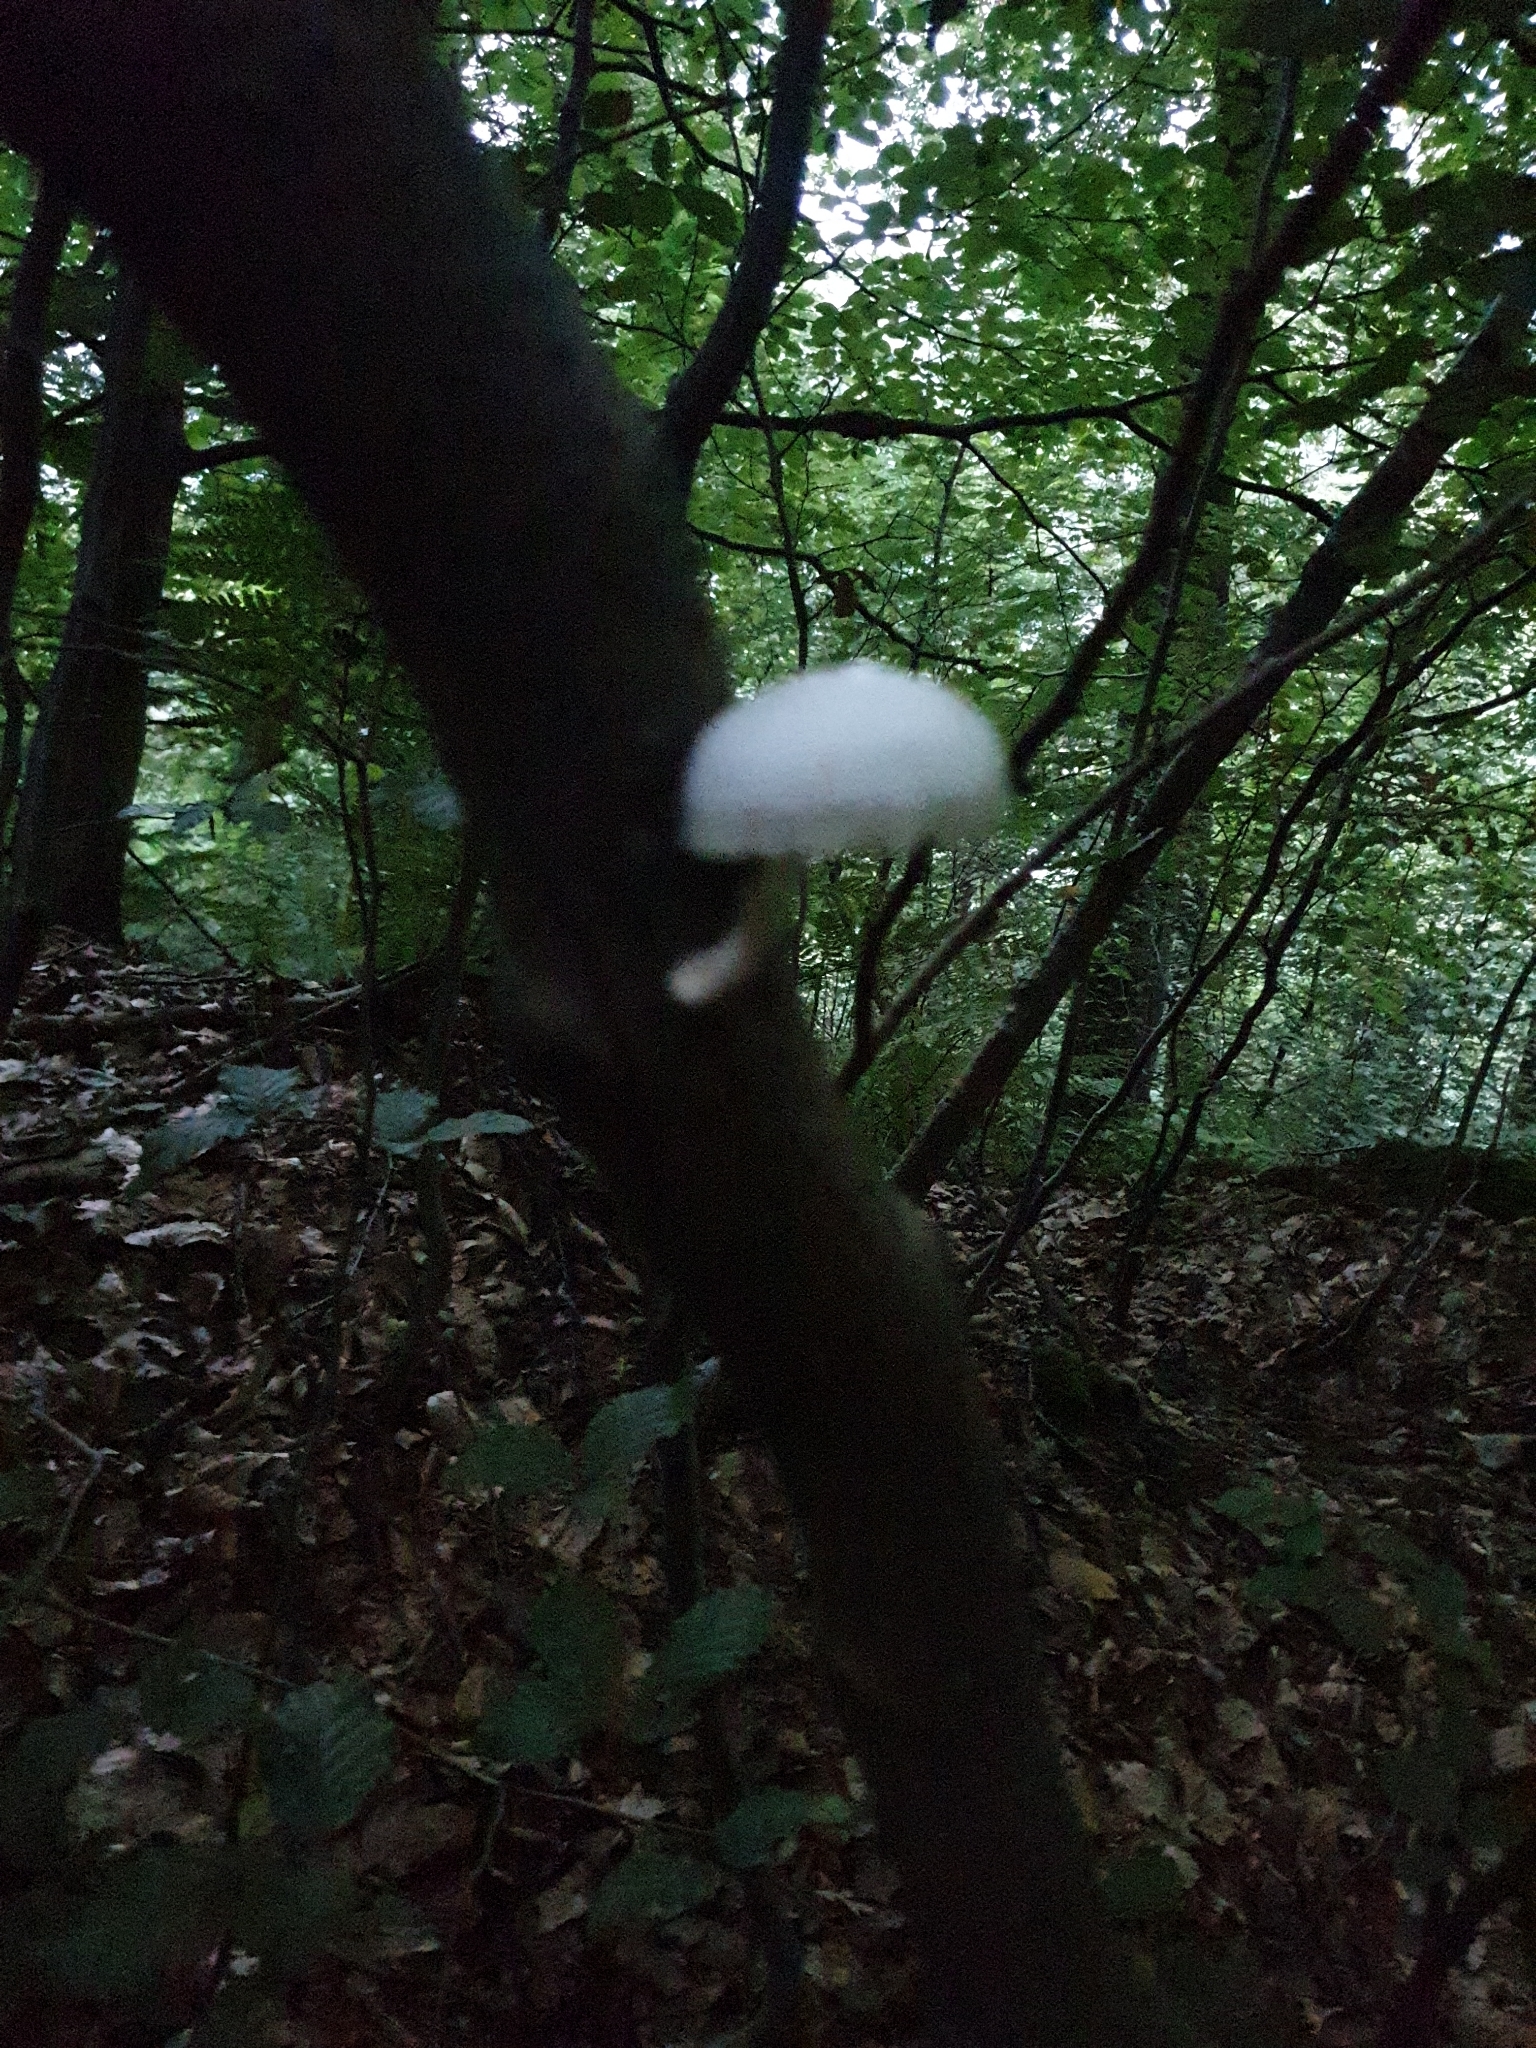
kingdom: Fungi
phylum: Basidiomycota
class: Agaricomycetes
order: Agaricales
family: Physalacriaceae
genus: Mucidula
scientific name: Mucidula mucida
